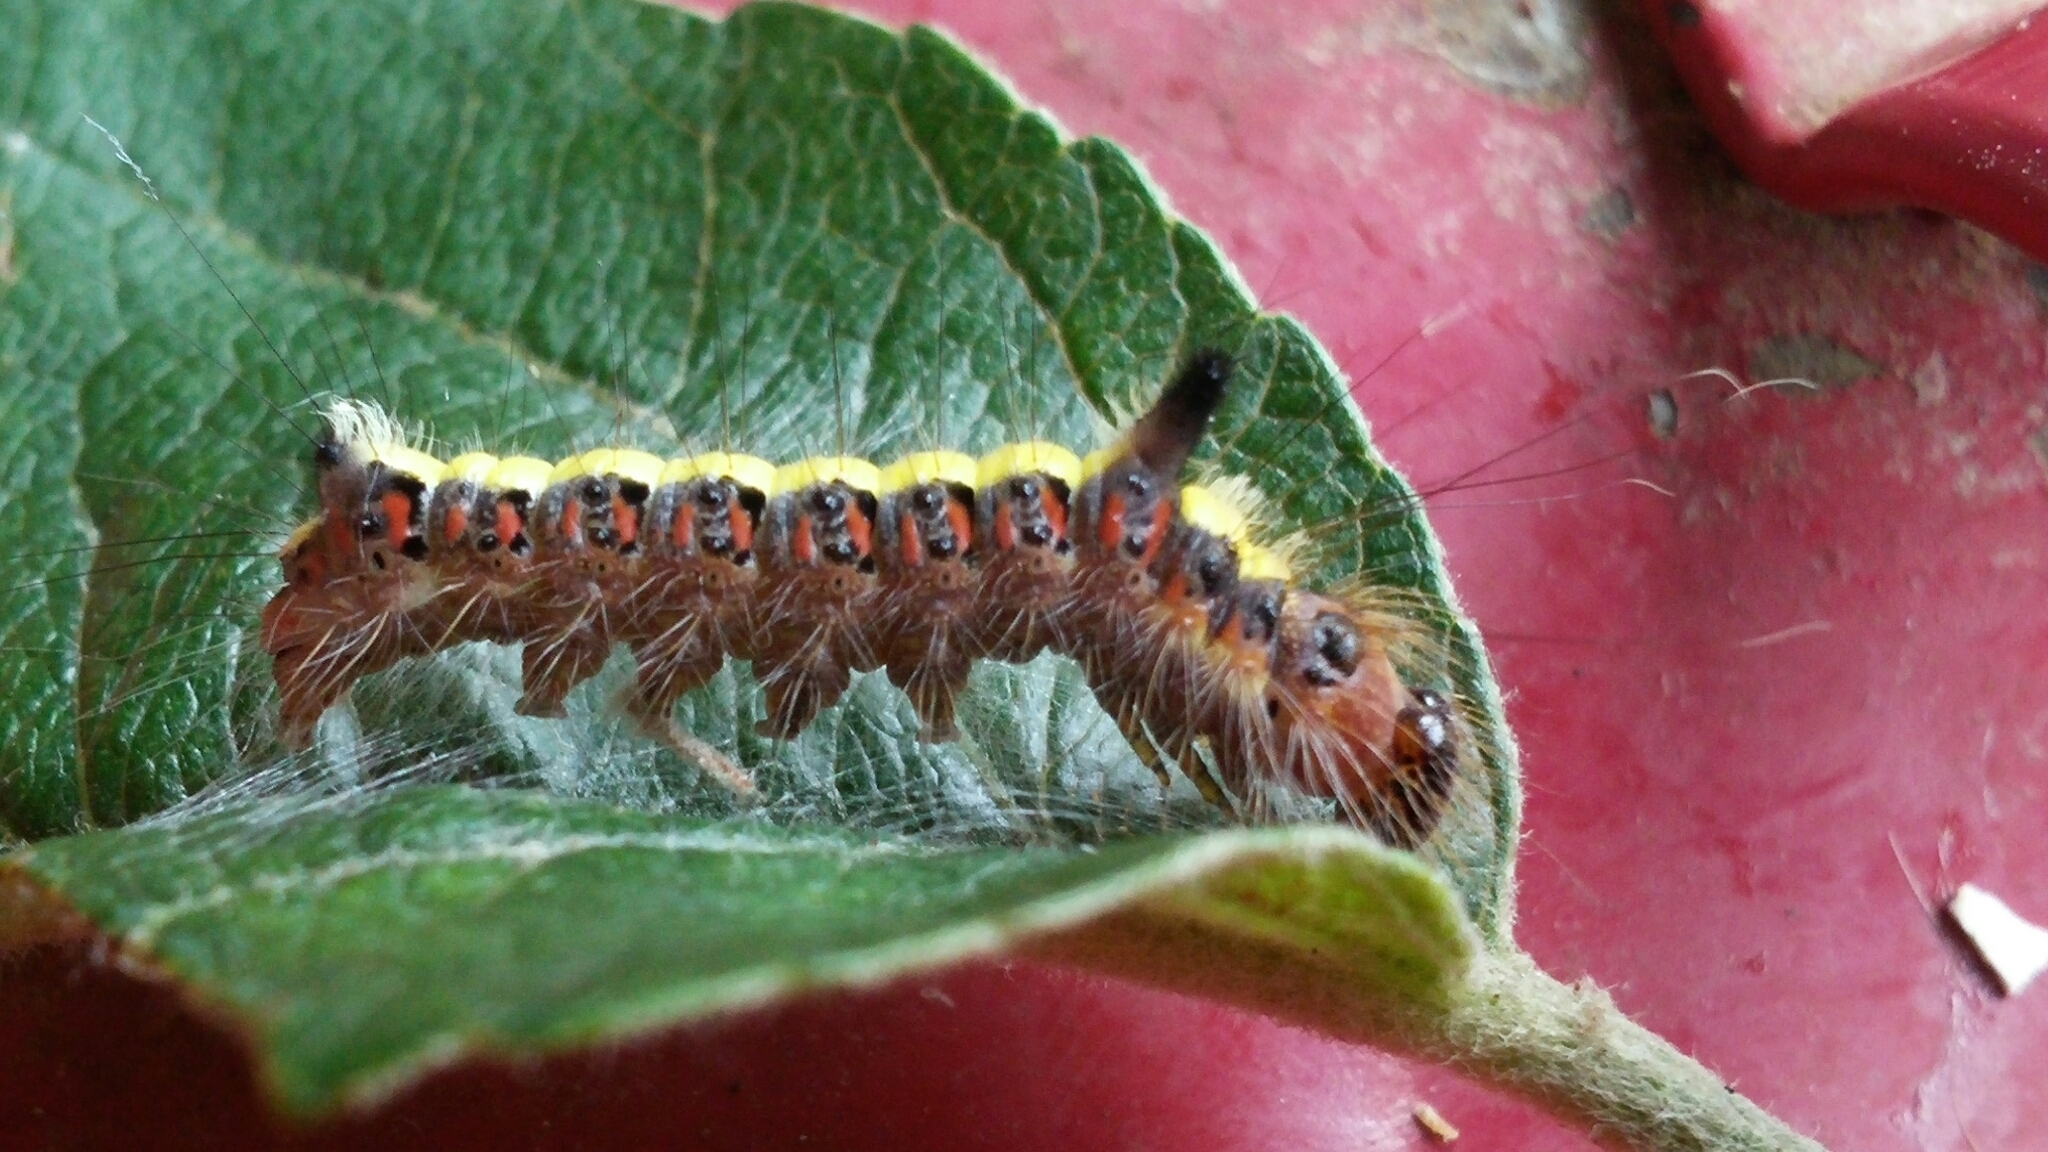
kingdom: Animalia
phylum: Arthropoda
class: Insecta
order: Lepidoptera
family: Noctuidae
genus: Acronicta
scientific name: Acronicta psi
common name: Grey dagger
